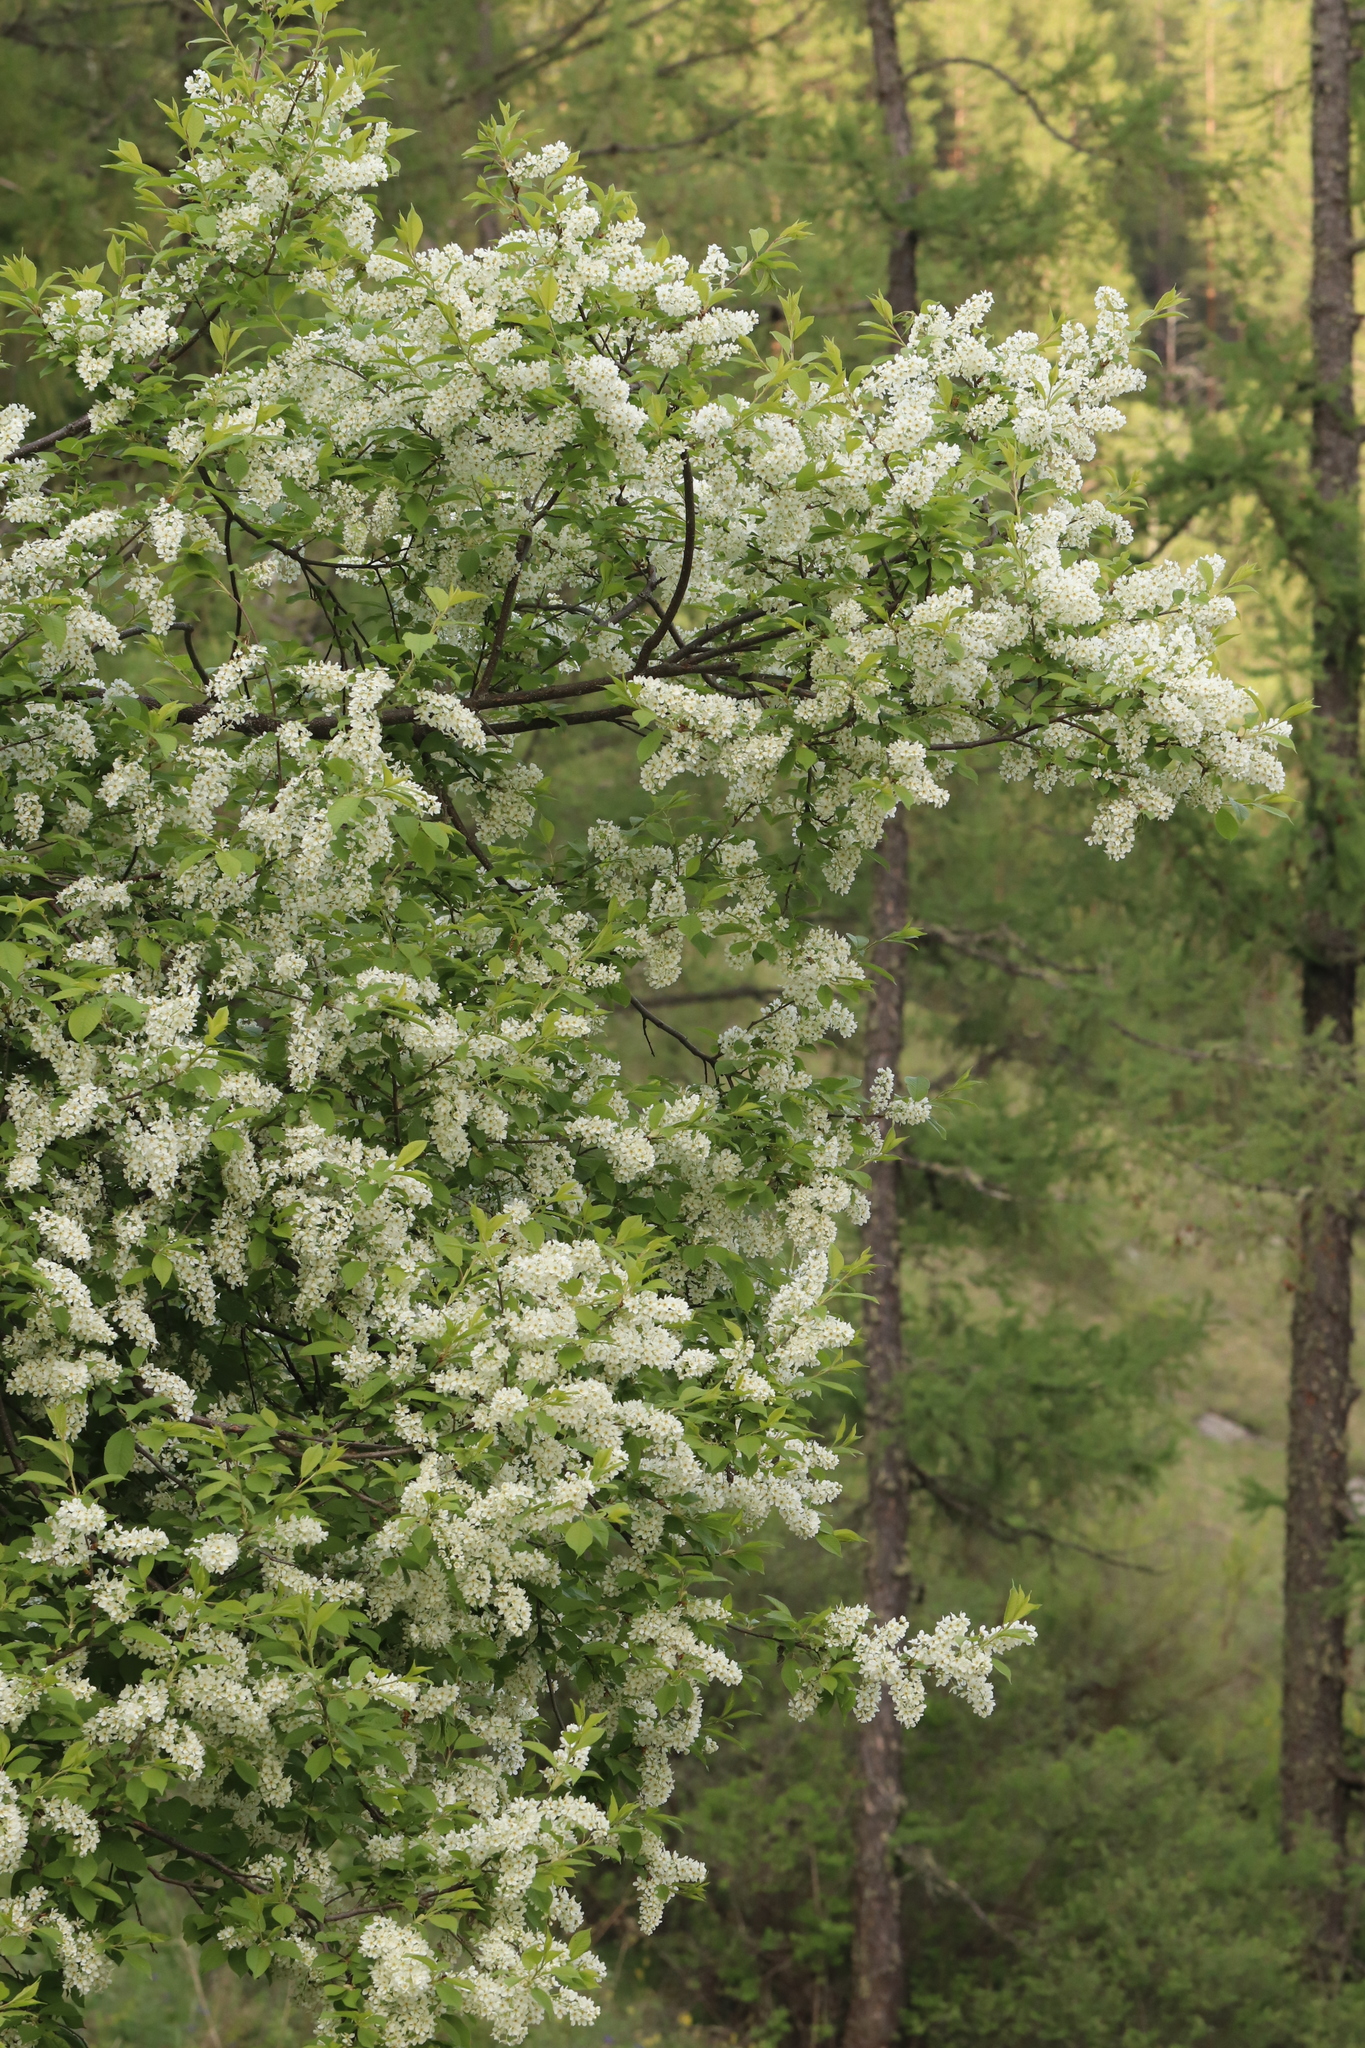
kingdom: Plantae
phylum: Tracheophyta
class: Magnoliopsida
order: Rosales
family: Rosaceae
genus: Prunus
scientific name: Prunus padus
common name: Bird cherry
